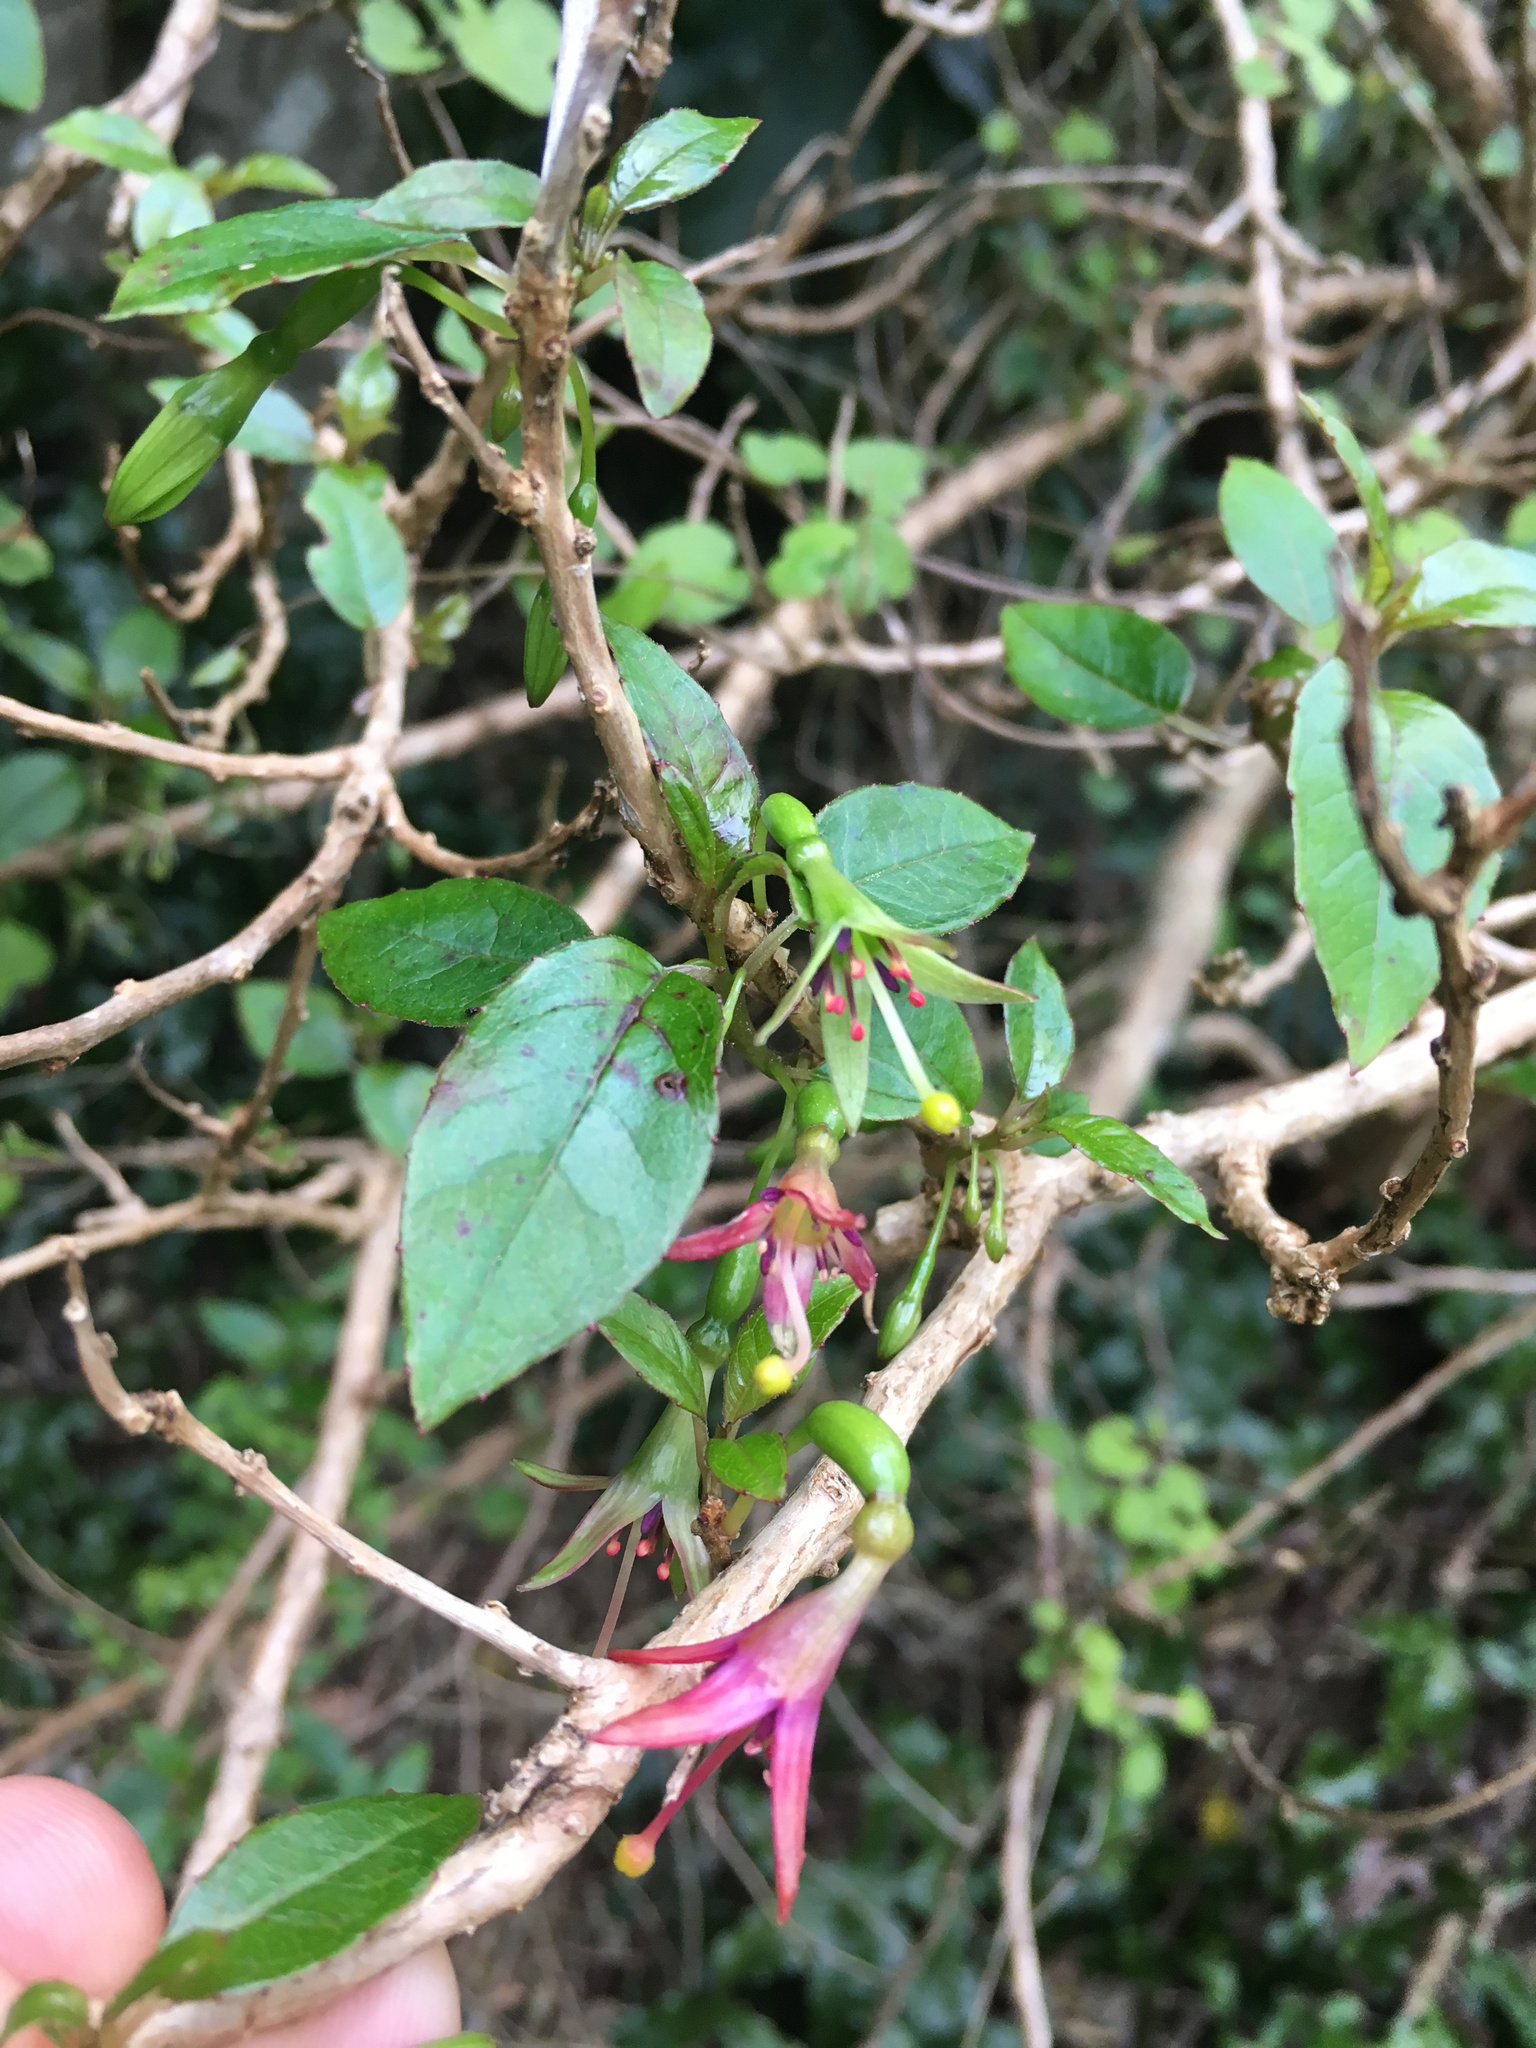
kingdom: Plantae
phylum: Tracheophyta
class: Magnoliopsida
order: Myrtales
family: Onagraceae
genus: Fuchsia
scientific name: Fuchsia excorticata
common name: Tree fuchsia
